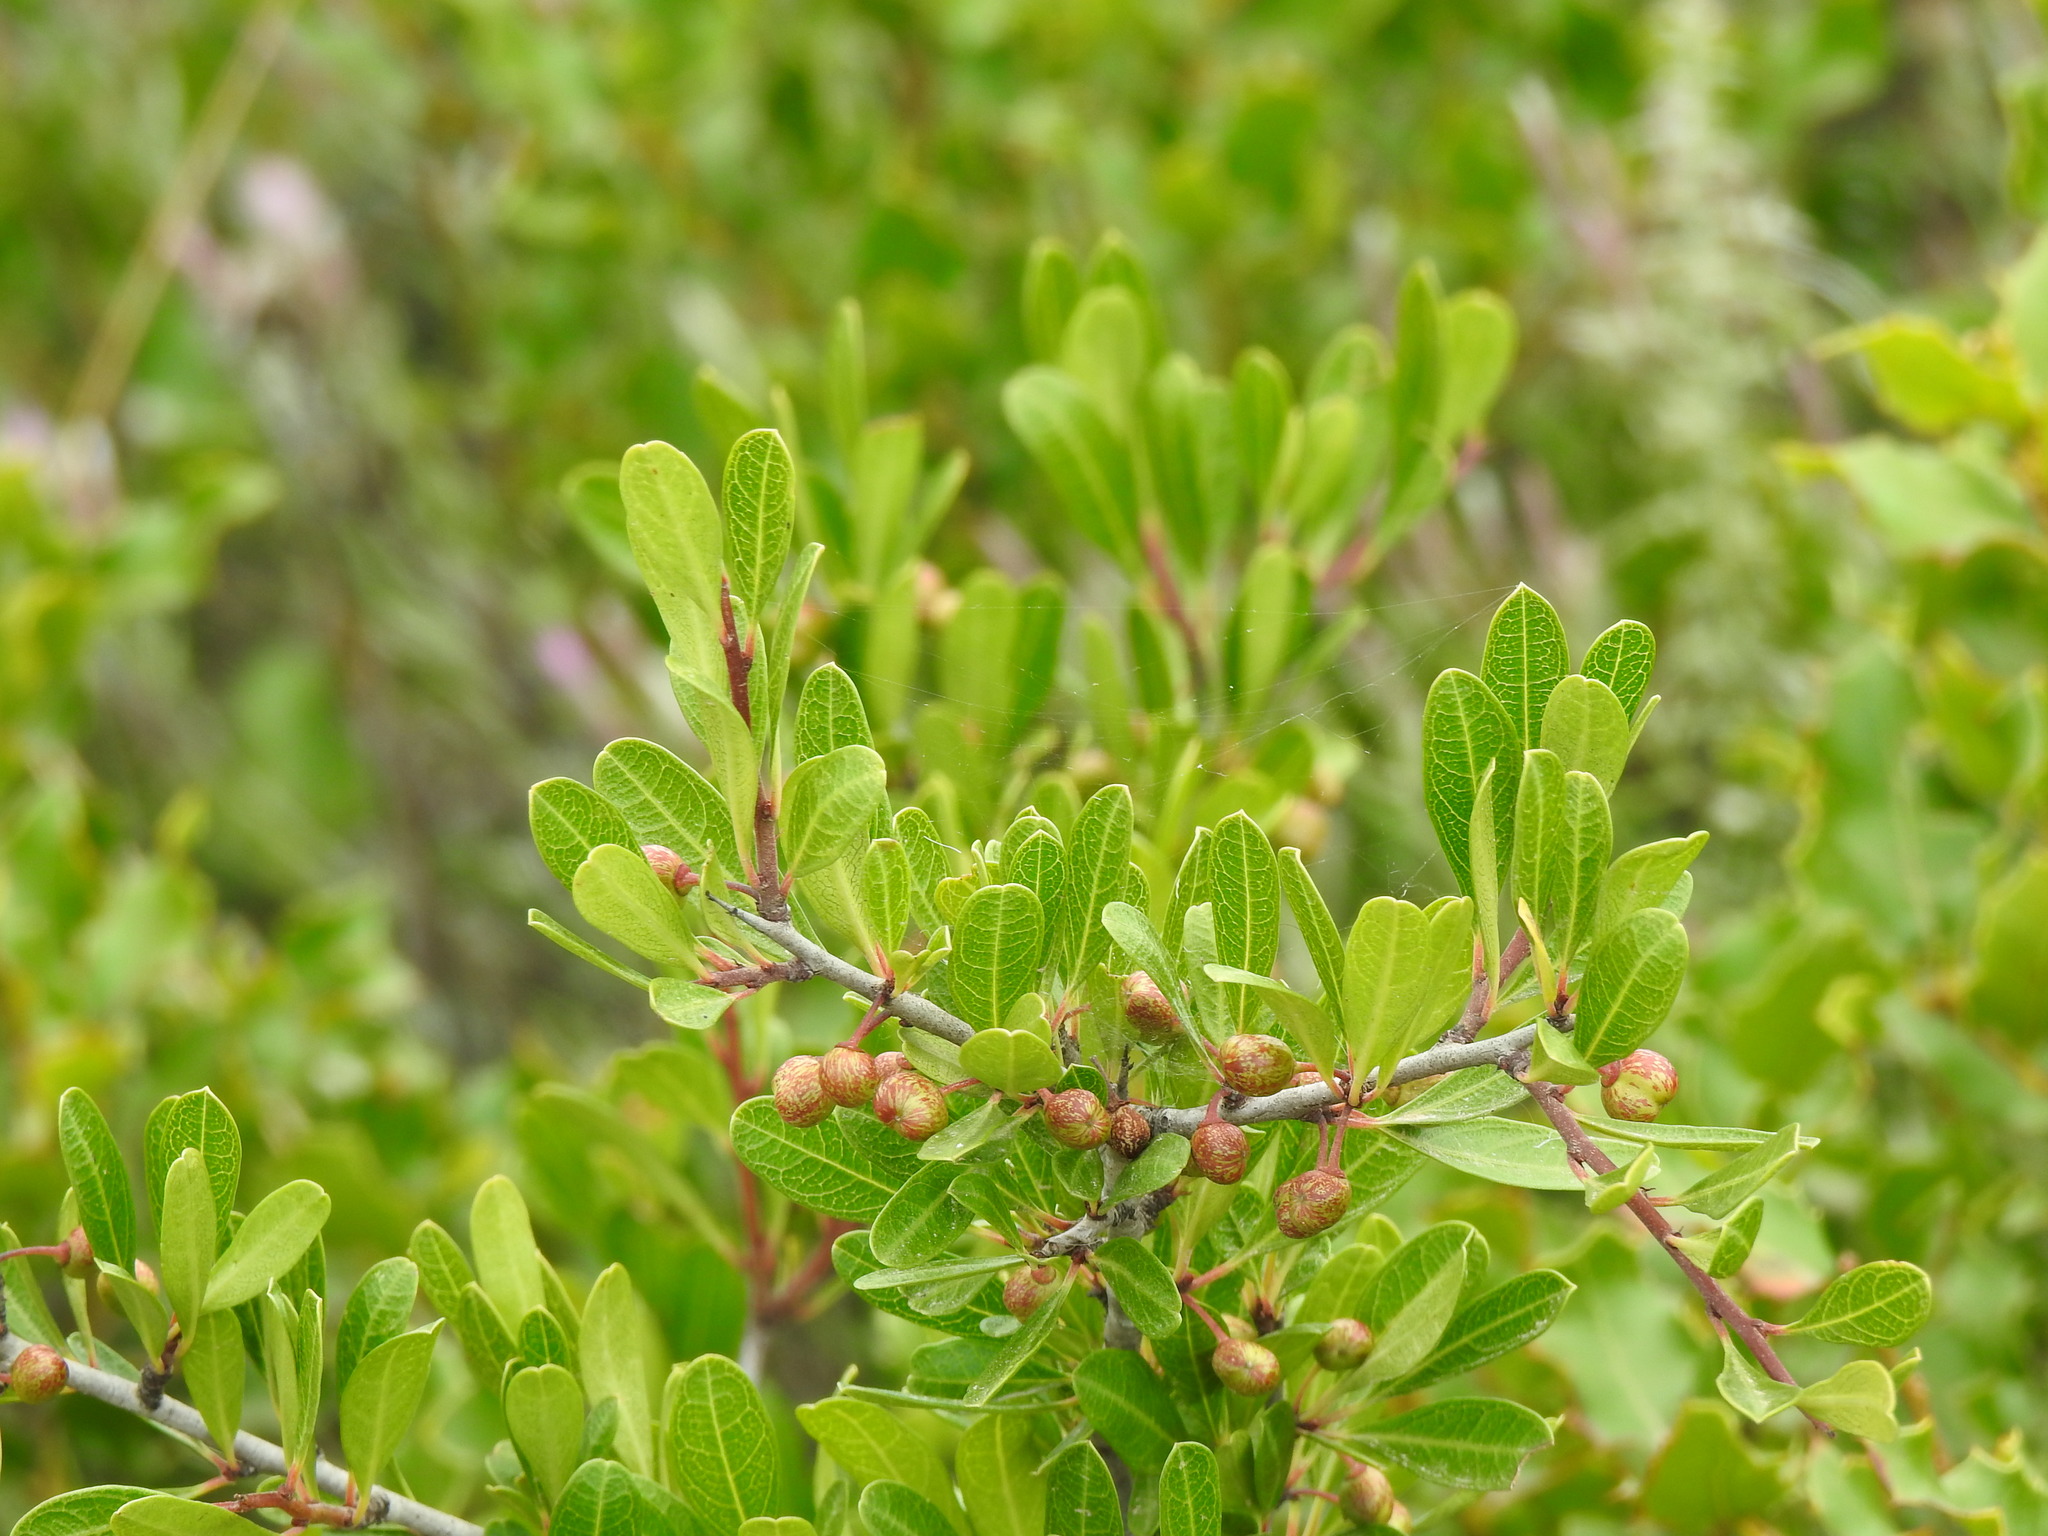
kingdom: Plantae
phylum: Tracheophyta
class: Magnoliopsida
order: Rosales
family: Rhamnaceae
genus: Rhamnus
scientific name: Rhamnus oleoides
